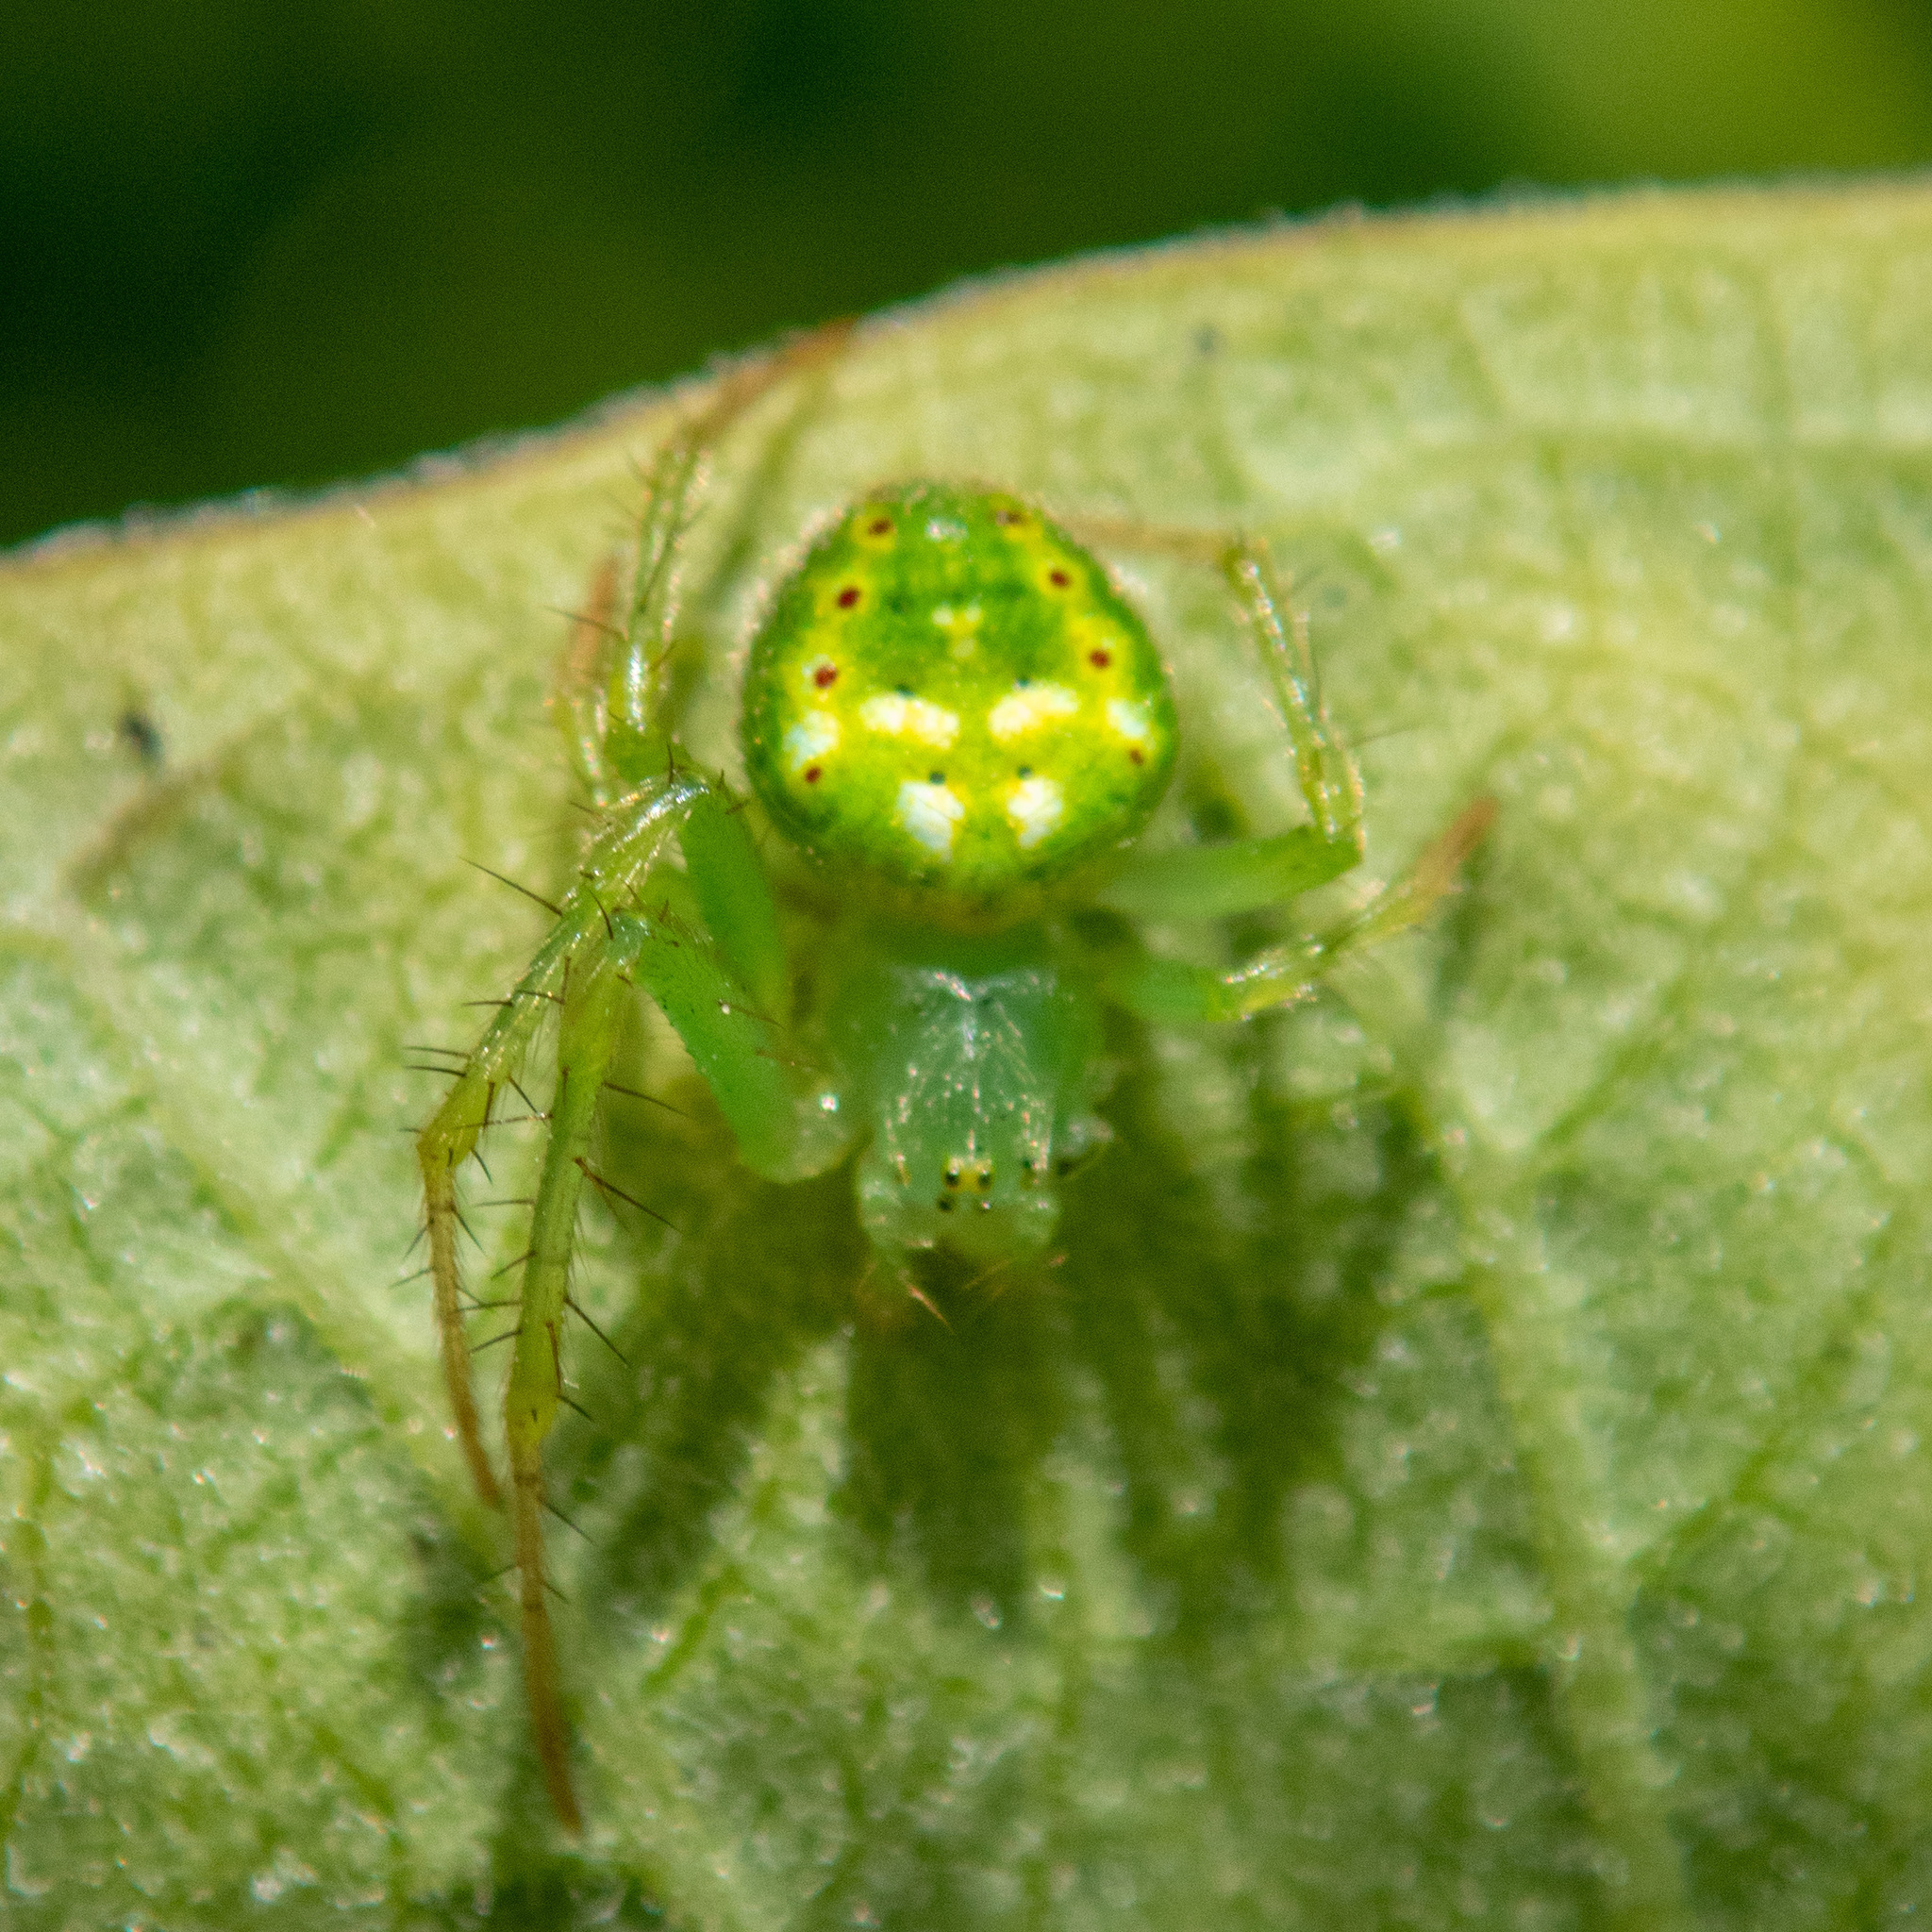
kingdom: Animalia
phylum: Arthropoda
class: Arachnida
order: Araneae
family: Araneidae
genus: Araneus
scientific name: Araneus cingulatus
